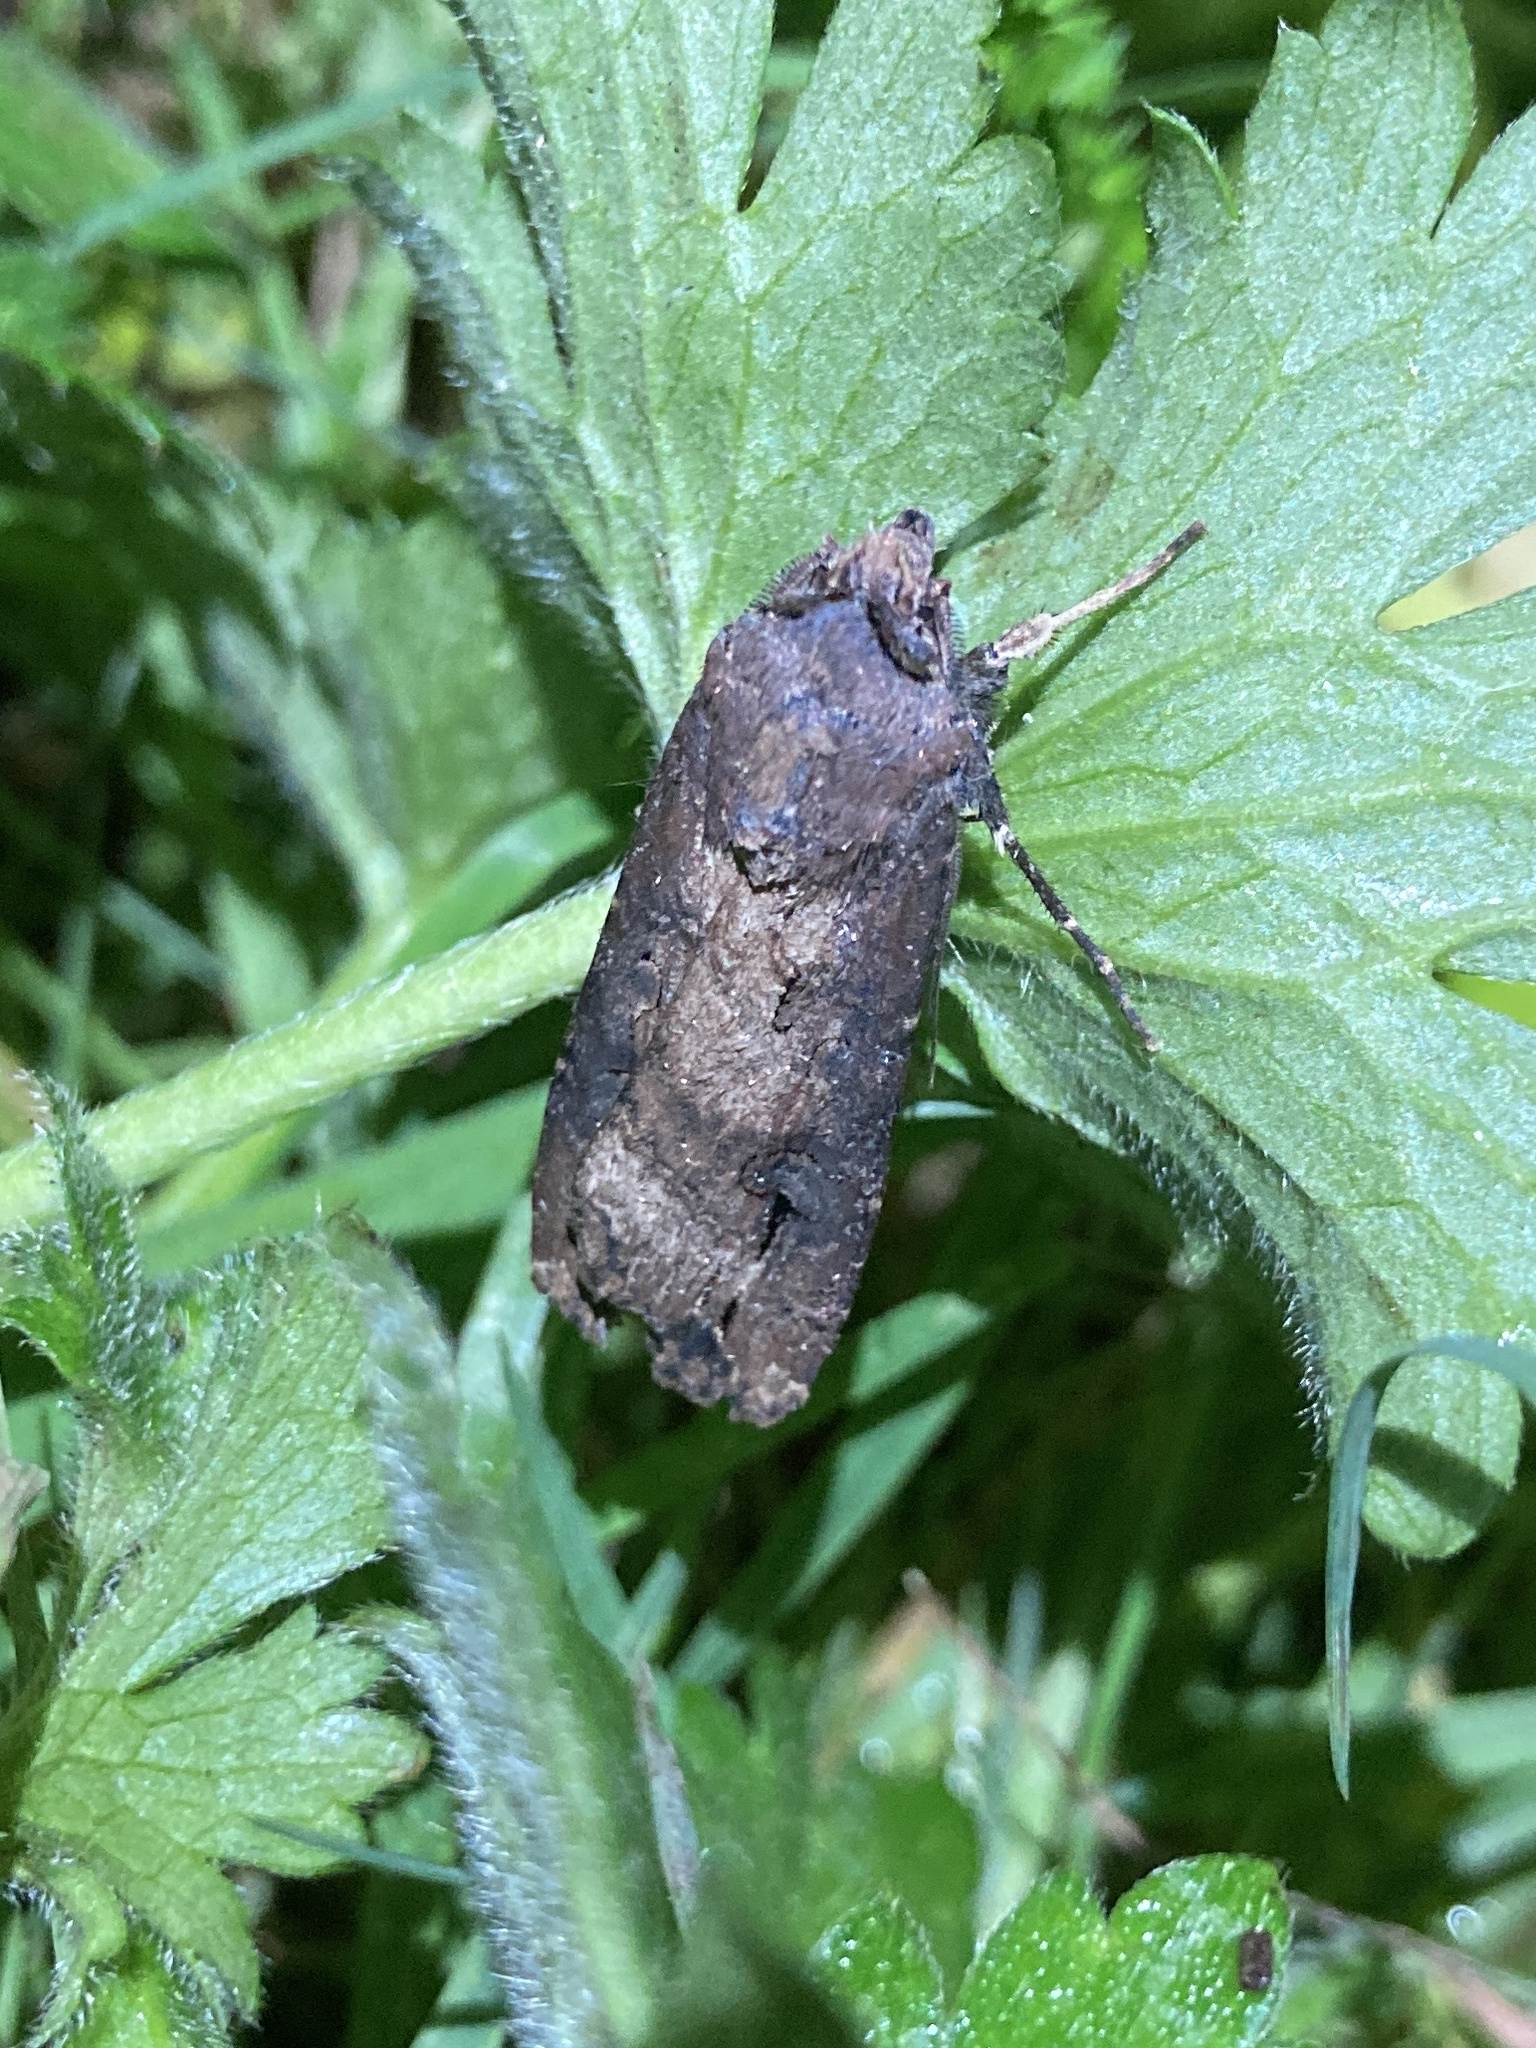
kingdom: Animalia
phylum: Arthropoda
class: Insecta
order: Lepidoptera
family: Noctuidae
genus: Agrotis
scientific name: Agrotis ipsilon
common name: Dark sword-grass
